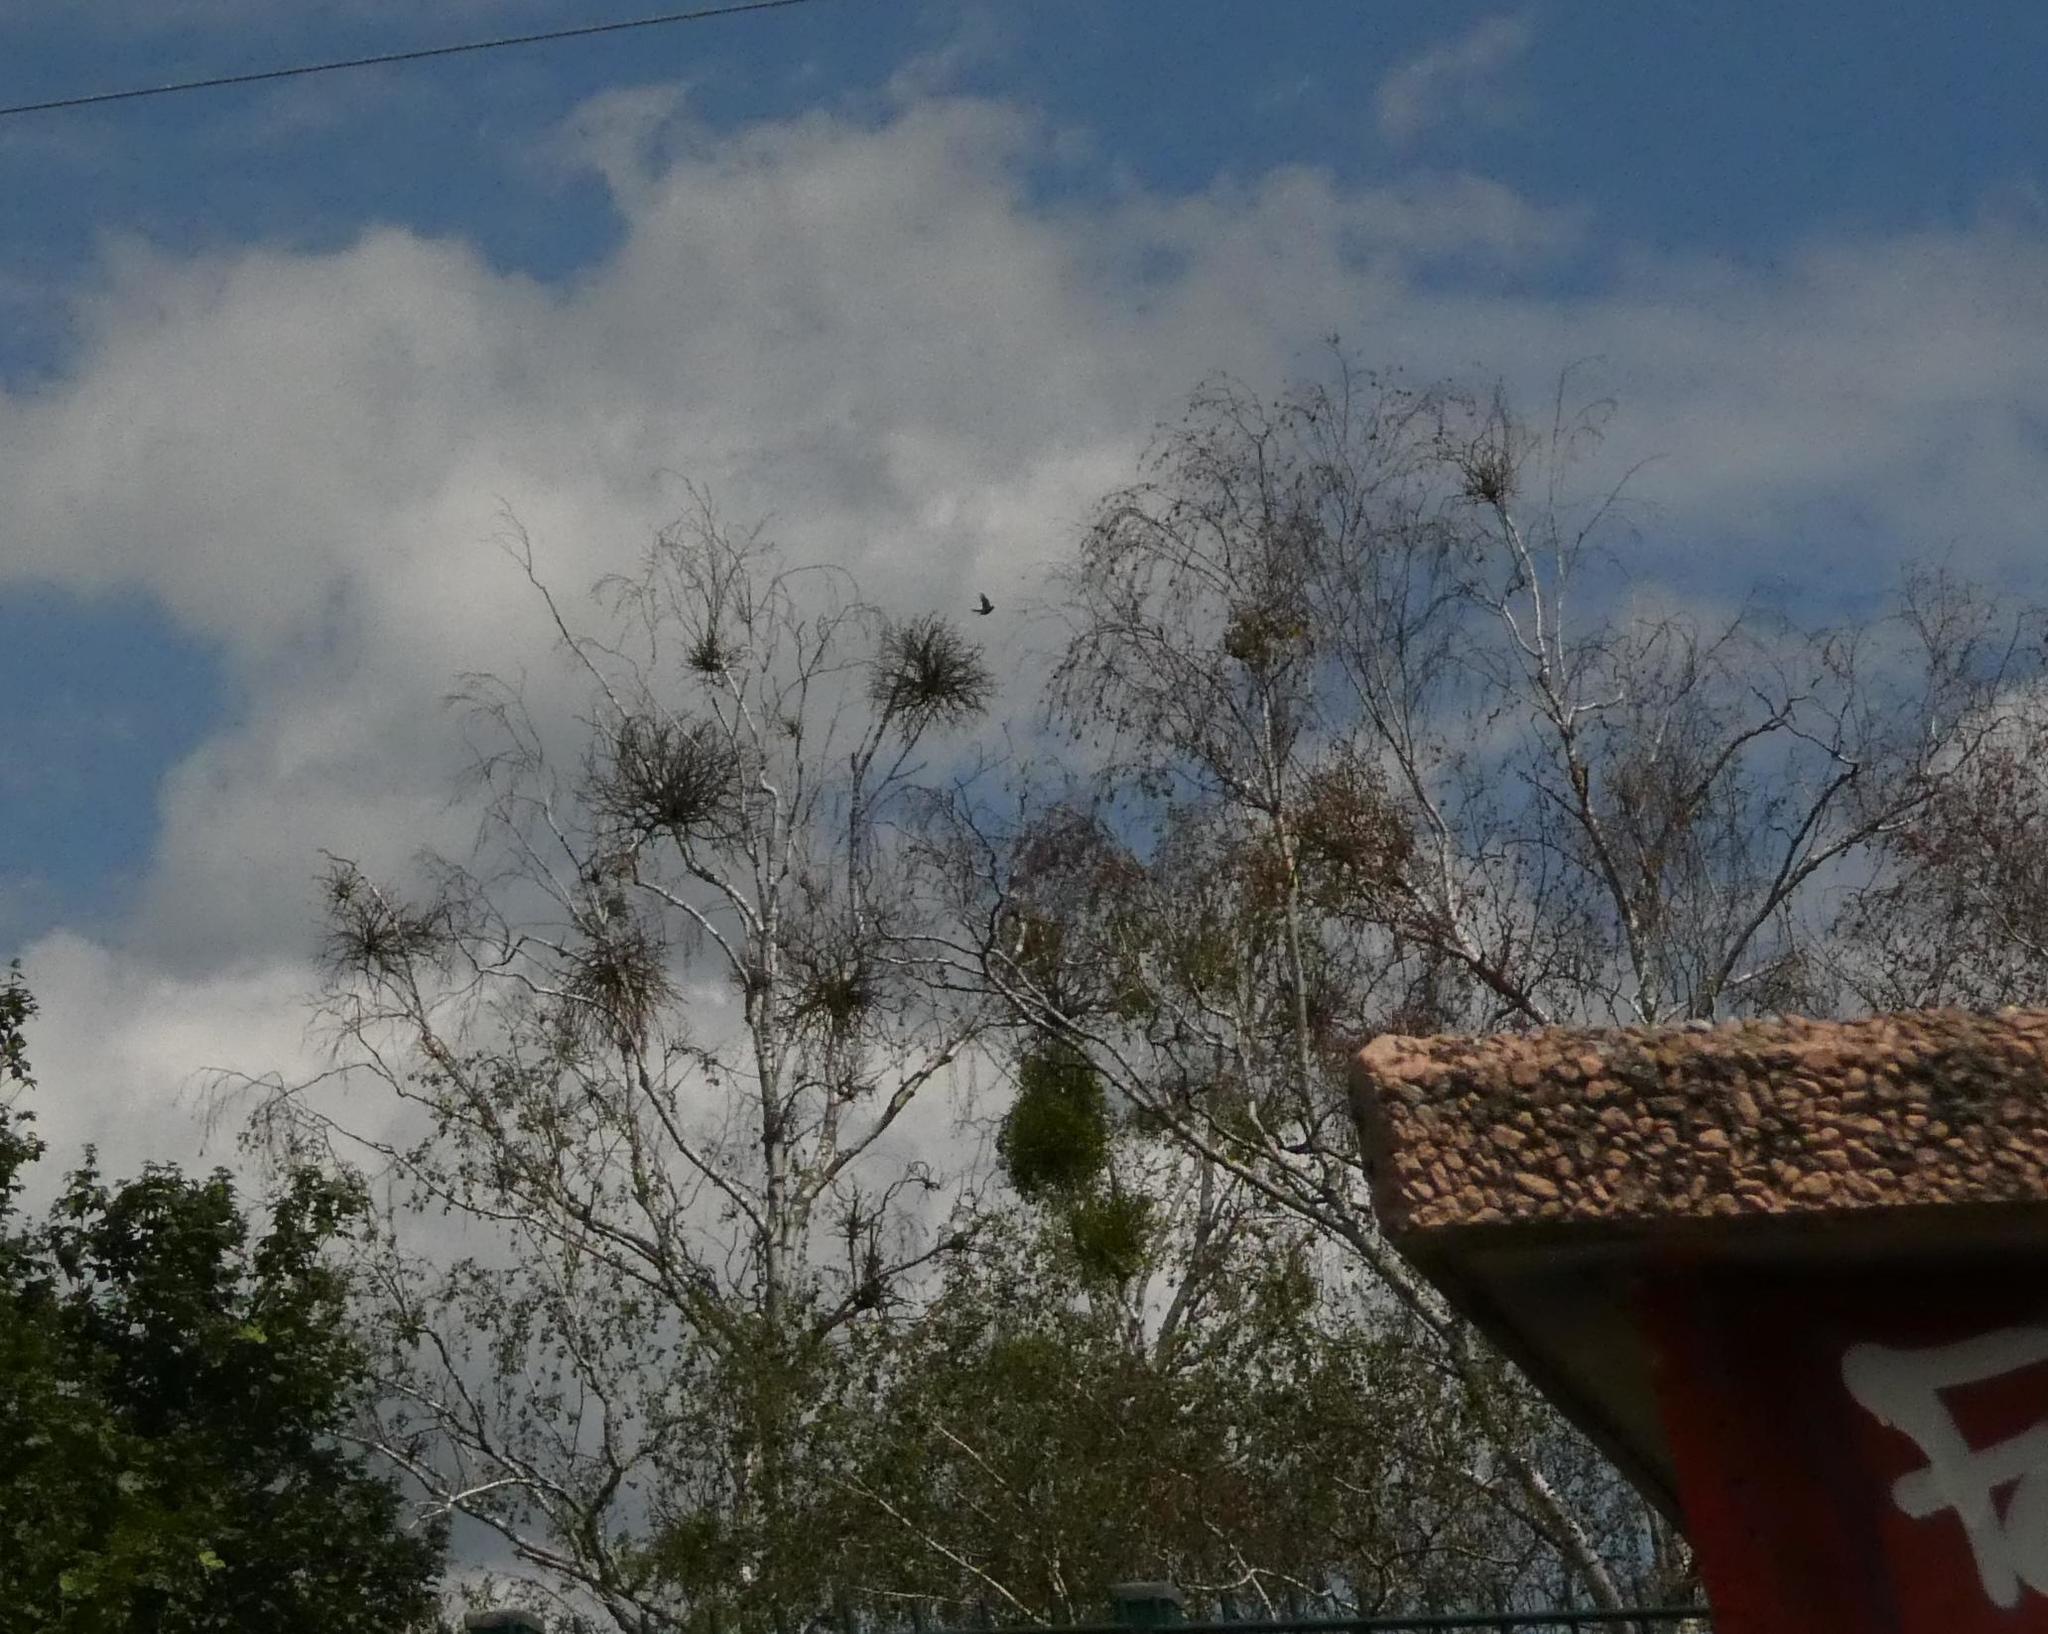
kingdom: Plantae
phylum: Tracheophyta
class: Magnoliopsida
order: Santalales
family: Viscaceae
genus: Viscum
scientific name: Viscum album
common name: Mistletoe
